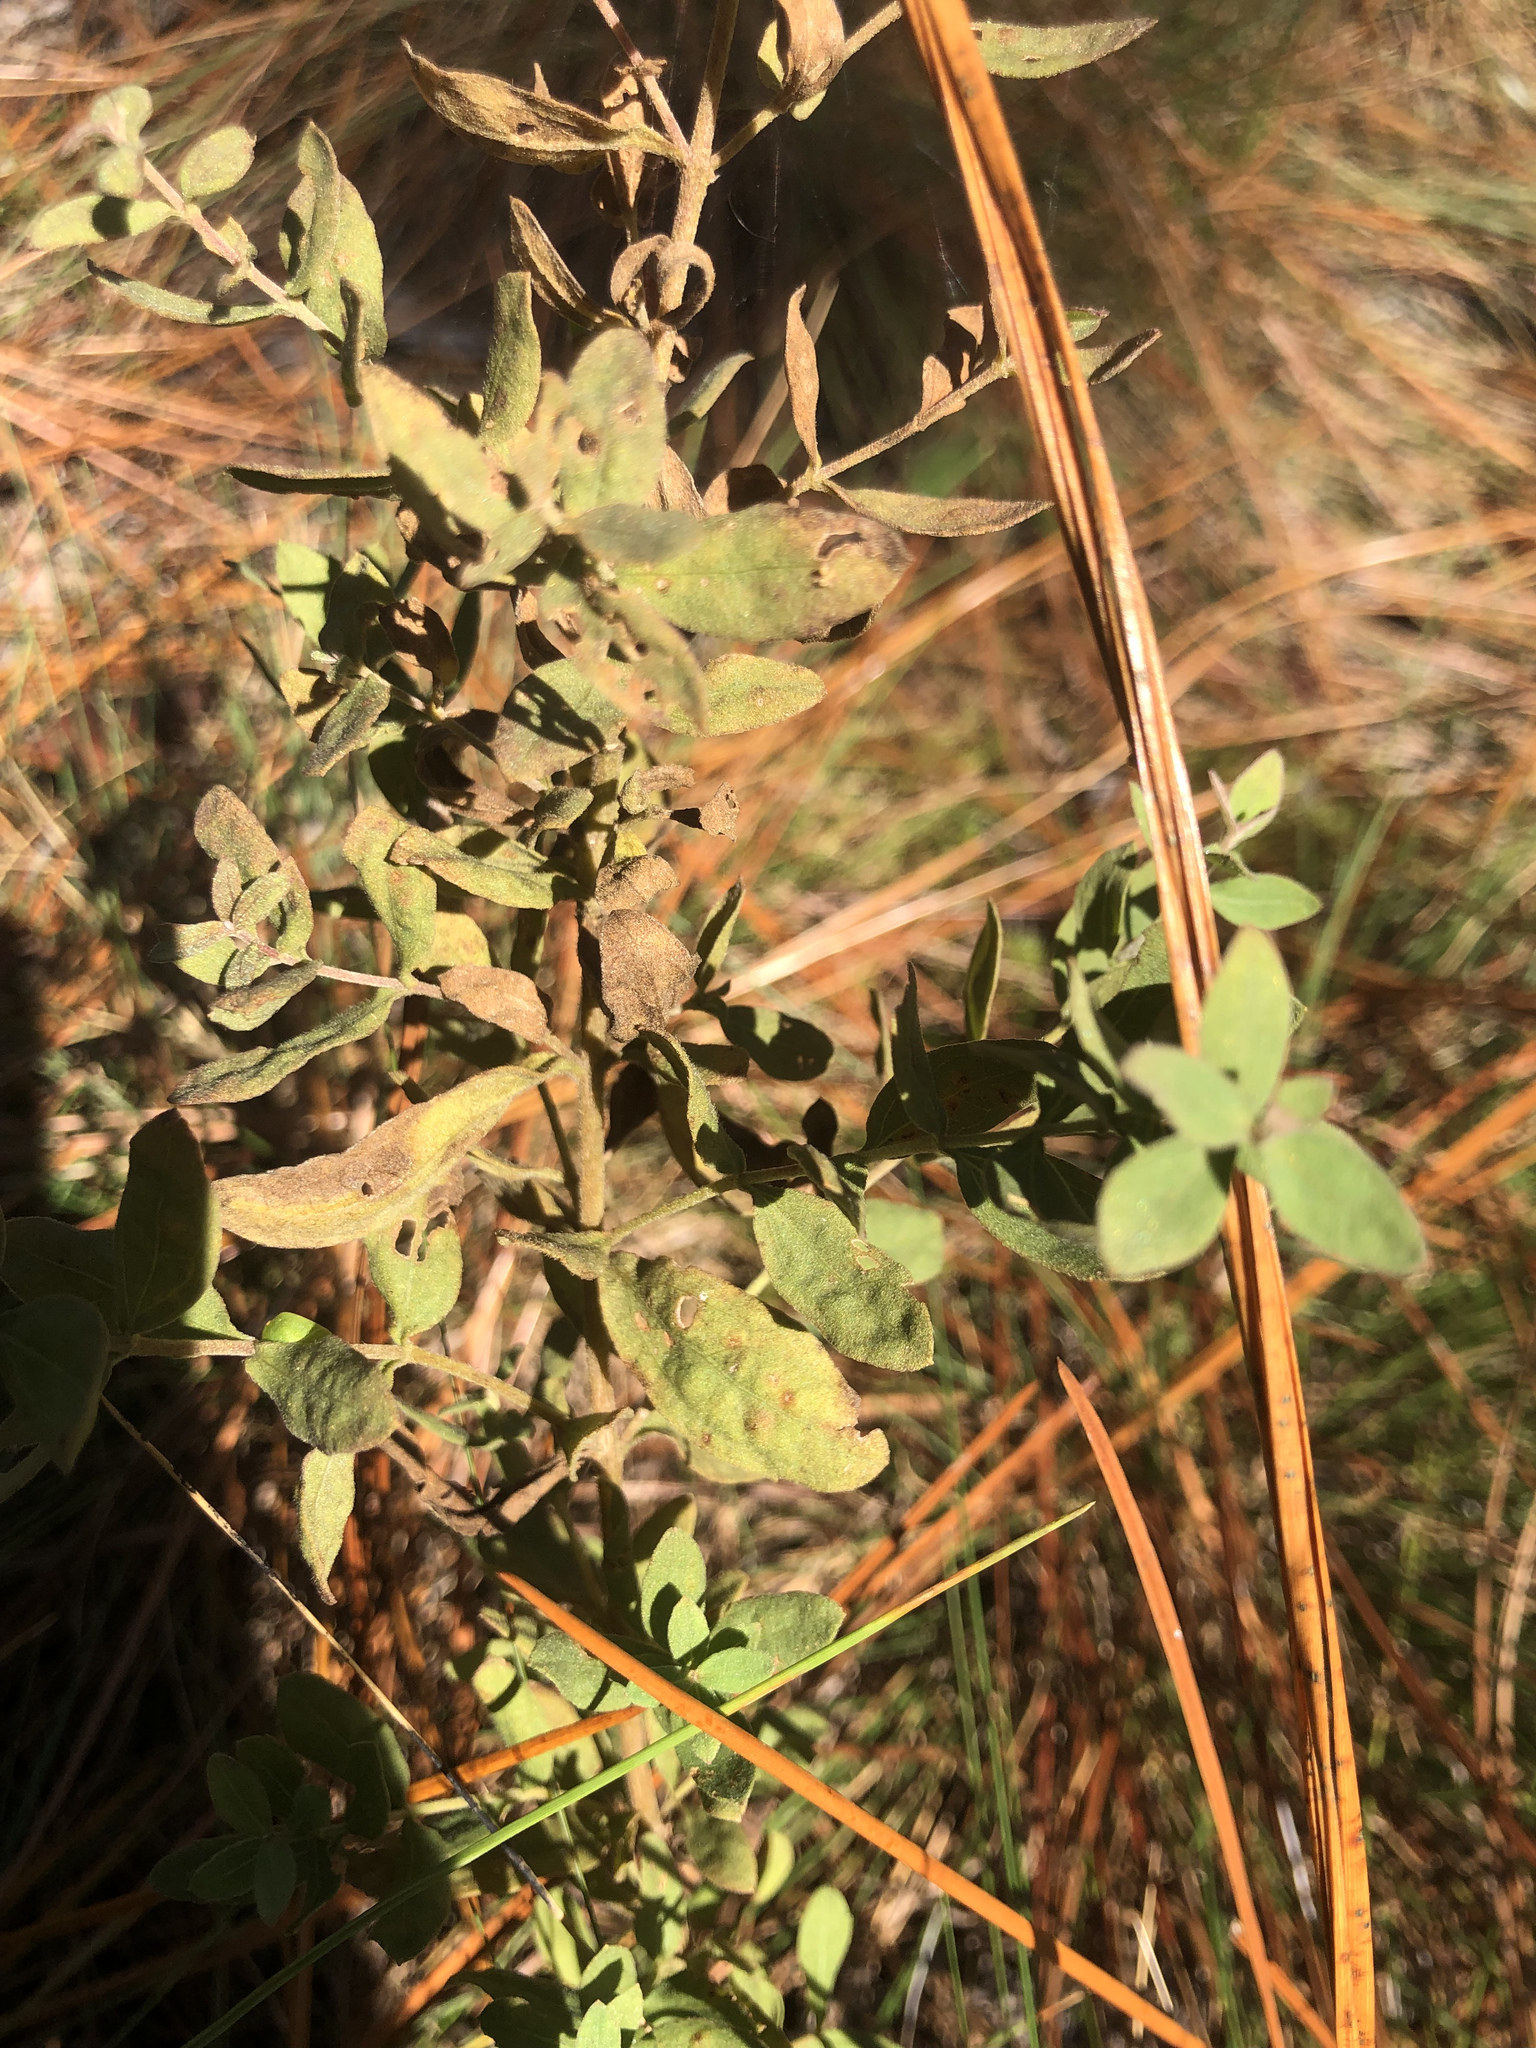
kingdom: Plantae
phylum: Tracheophyta
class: Magnoliopsida
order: Asterales
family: Asteraceae
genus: Eupatorium
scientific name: Eupatorium linearifolium
